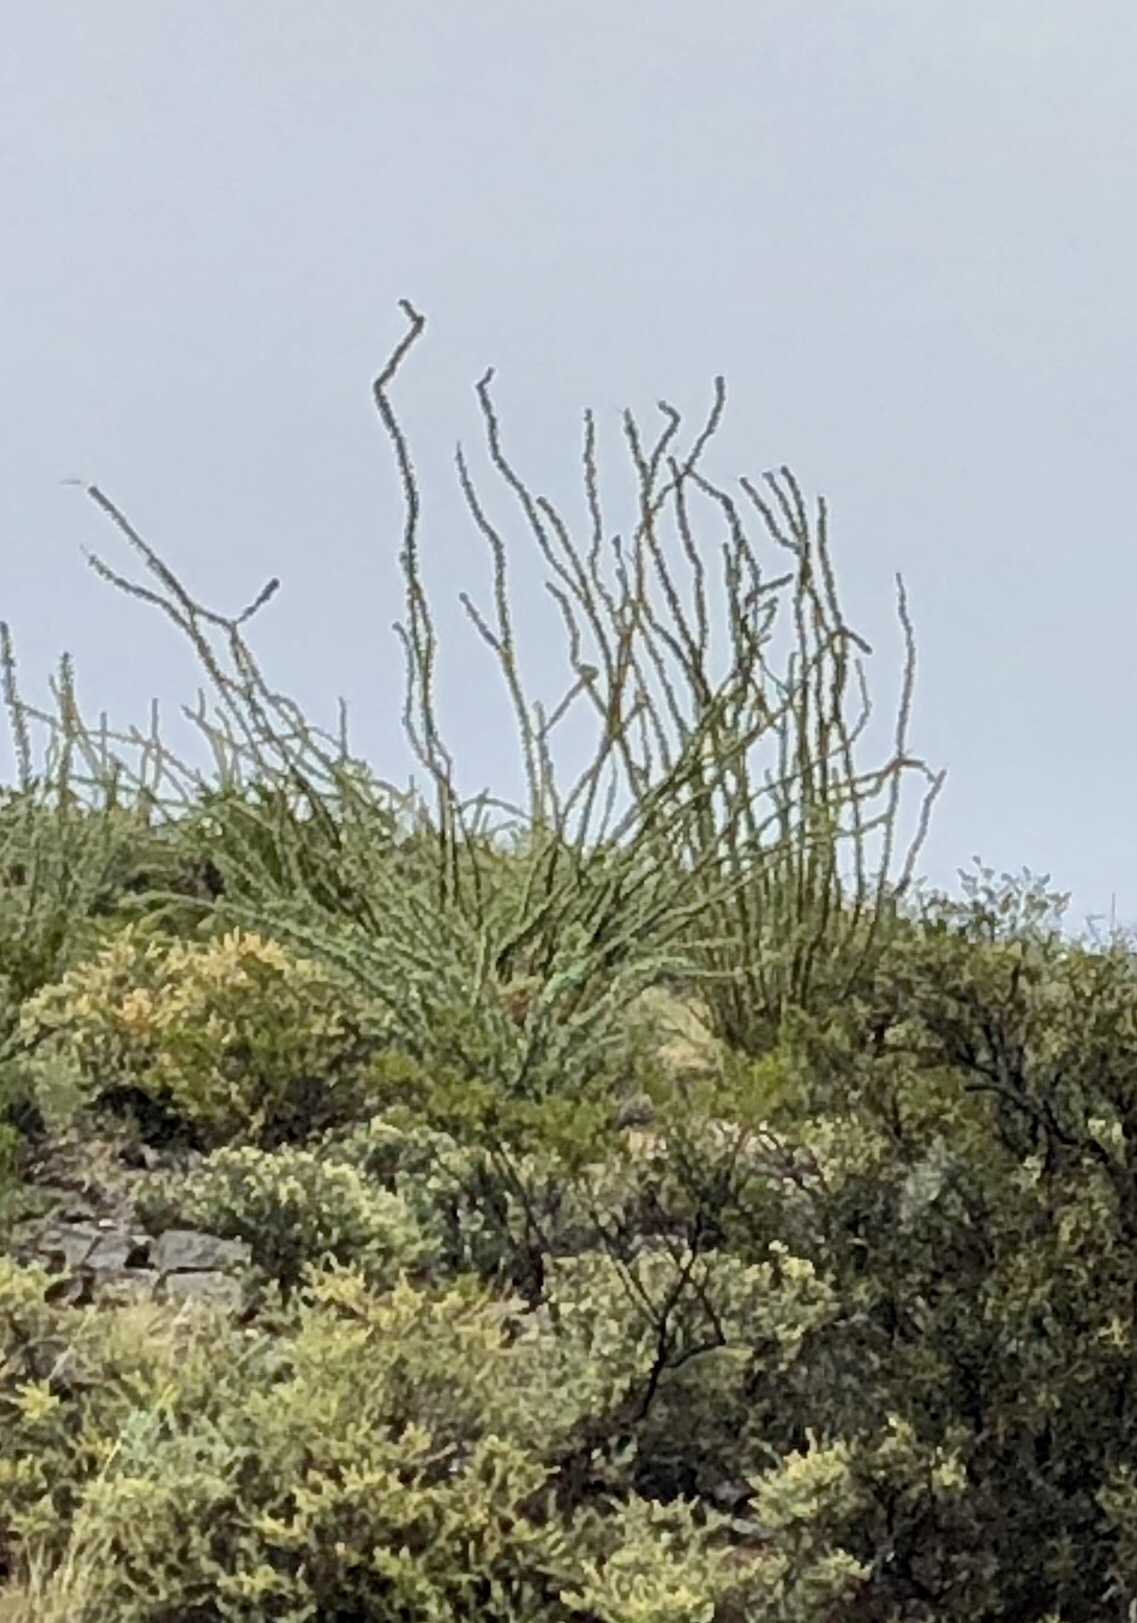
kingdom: Plantae
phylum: Tracheophyta
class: Magnoliopsida
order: Ericales
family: Fouquieriaceae
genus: Fouquieria
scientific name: Fouquieria splendens
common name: Vine-cactus
